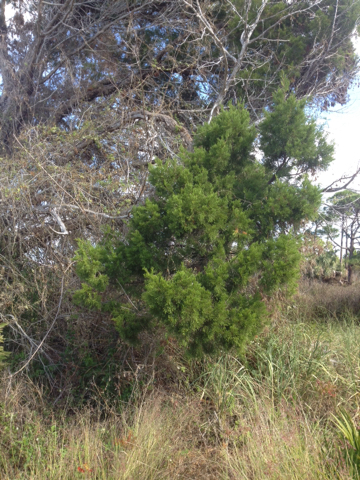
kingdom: Plantae
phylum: Tracheophyta
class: Pinopsida
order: Pinales
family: Cupressaceae
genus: Juniperus
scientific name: Juniperus virginiana
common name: Red juniper
